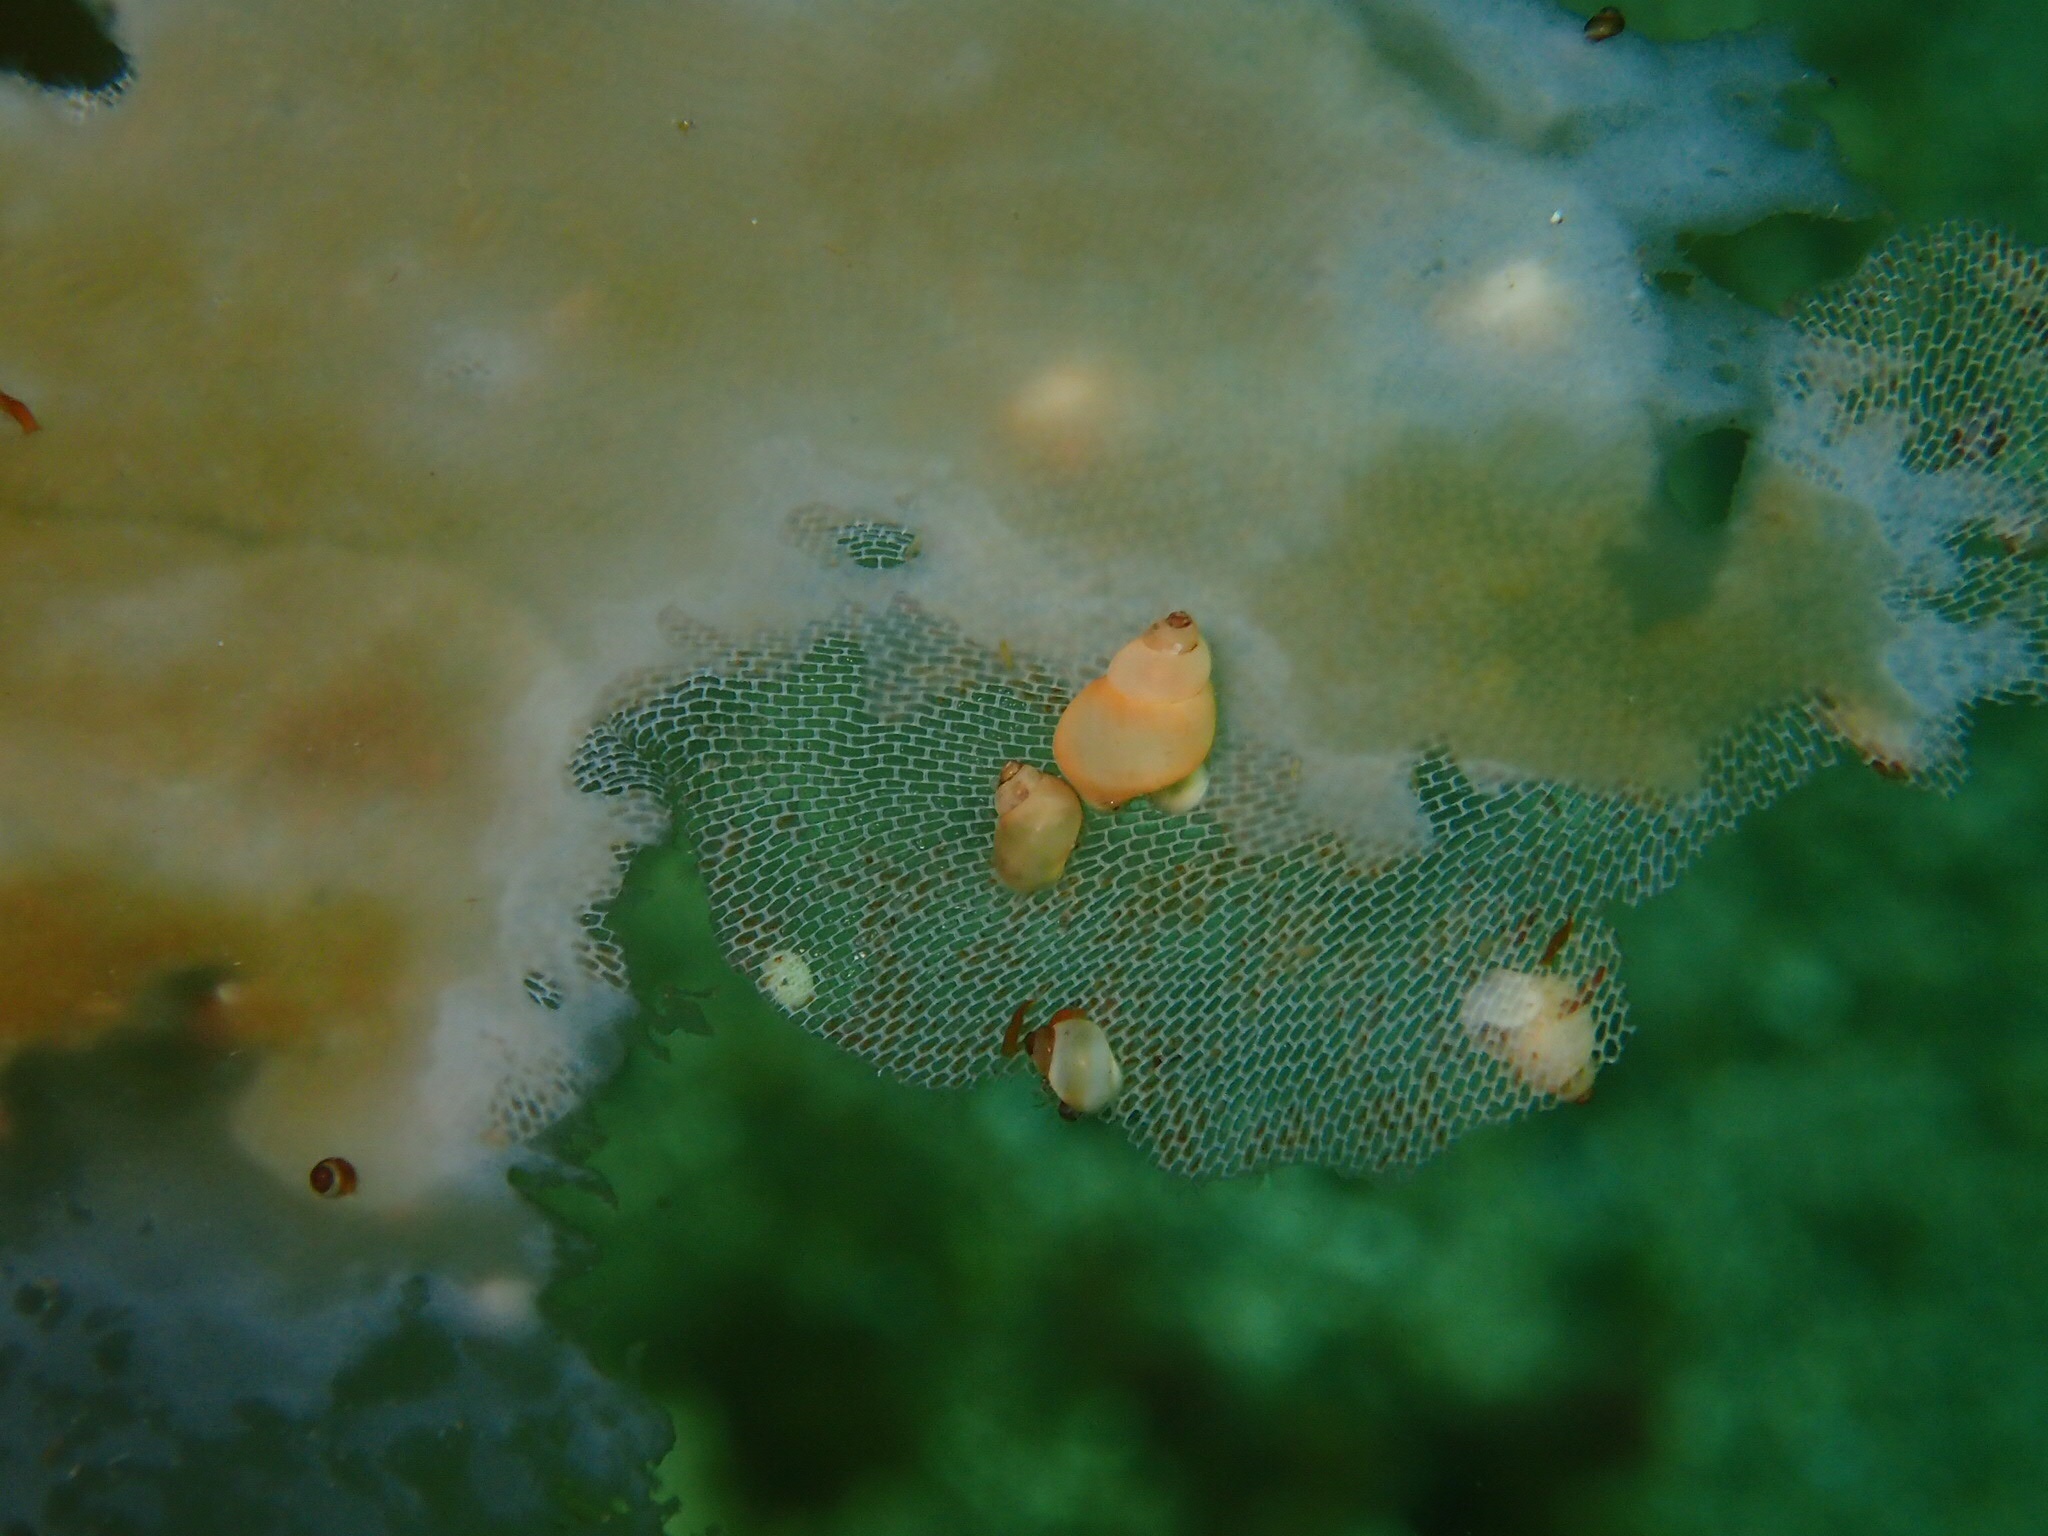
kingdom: Animalia
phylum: Mollusca
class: Gastropoda
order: Littorinimorpha
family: Littorinidae
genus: Lacuna
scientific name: Lacuna vincta
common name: Banded chink shell
